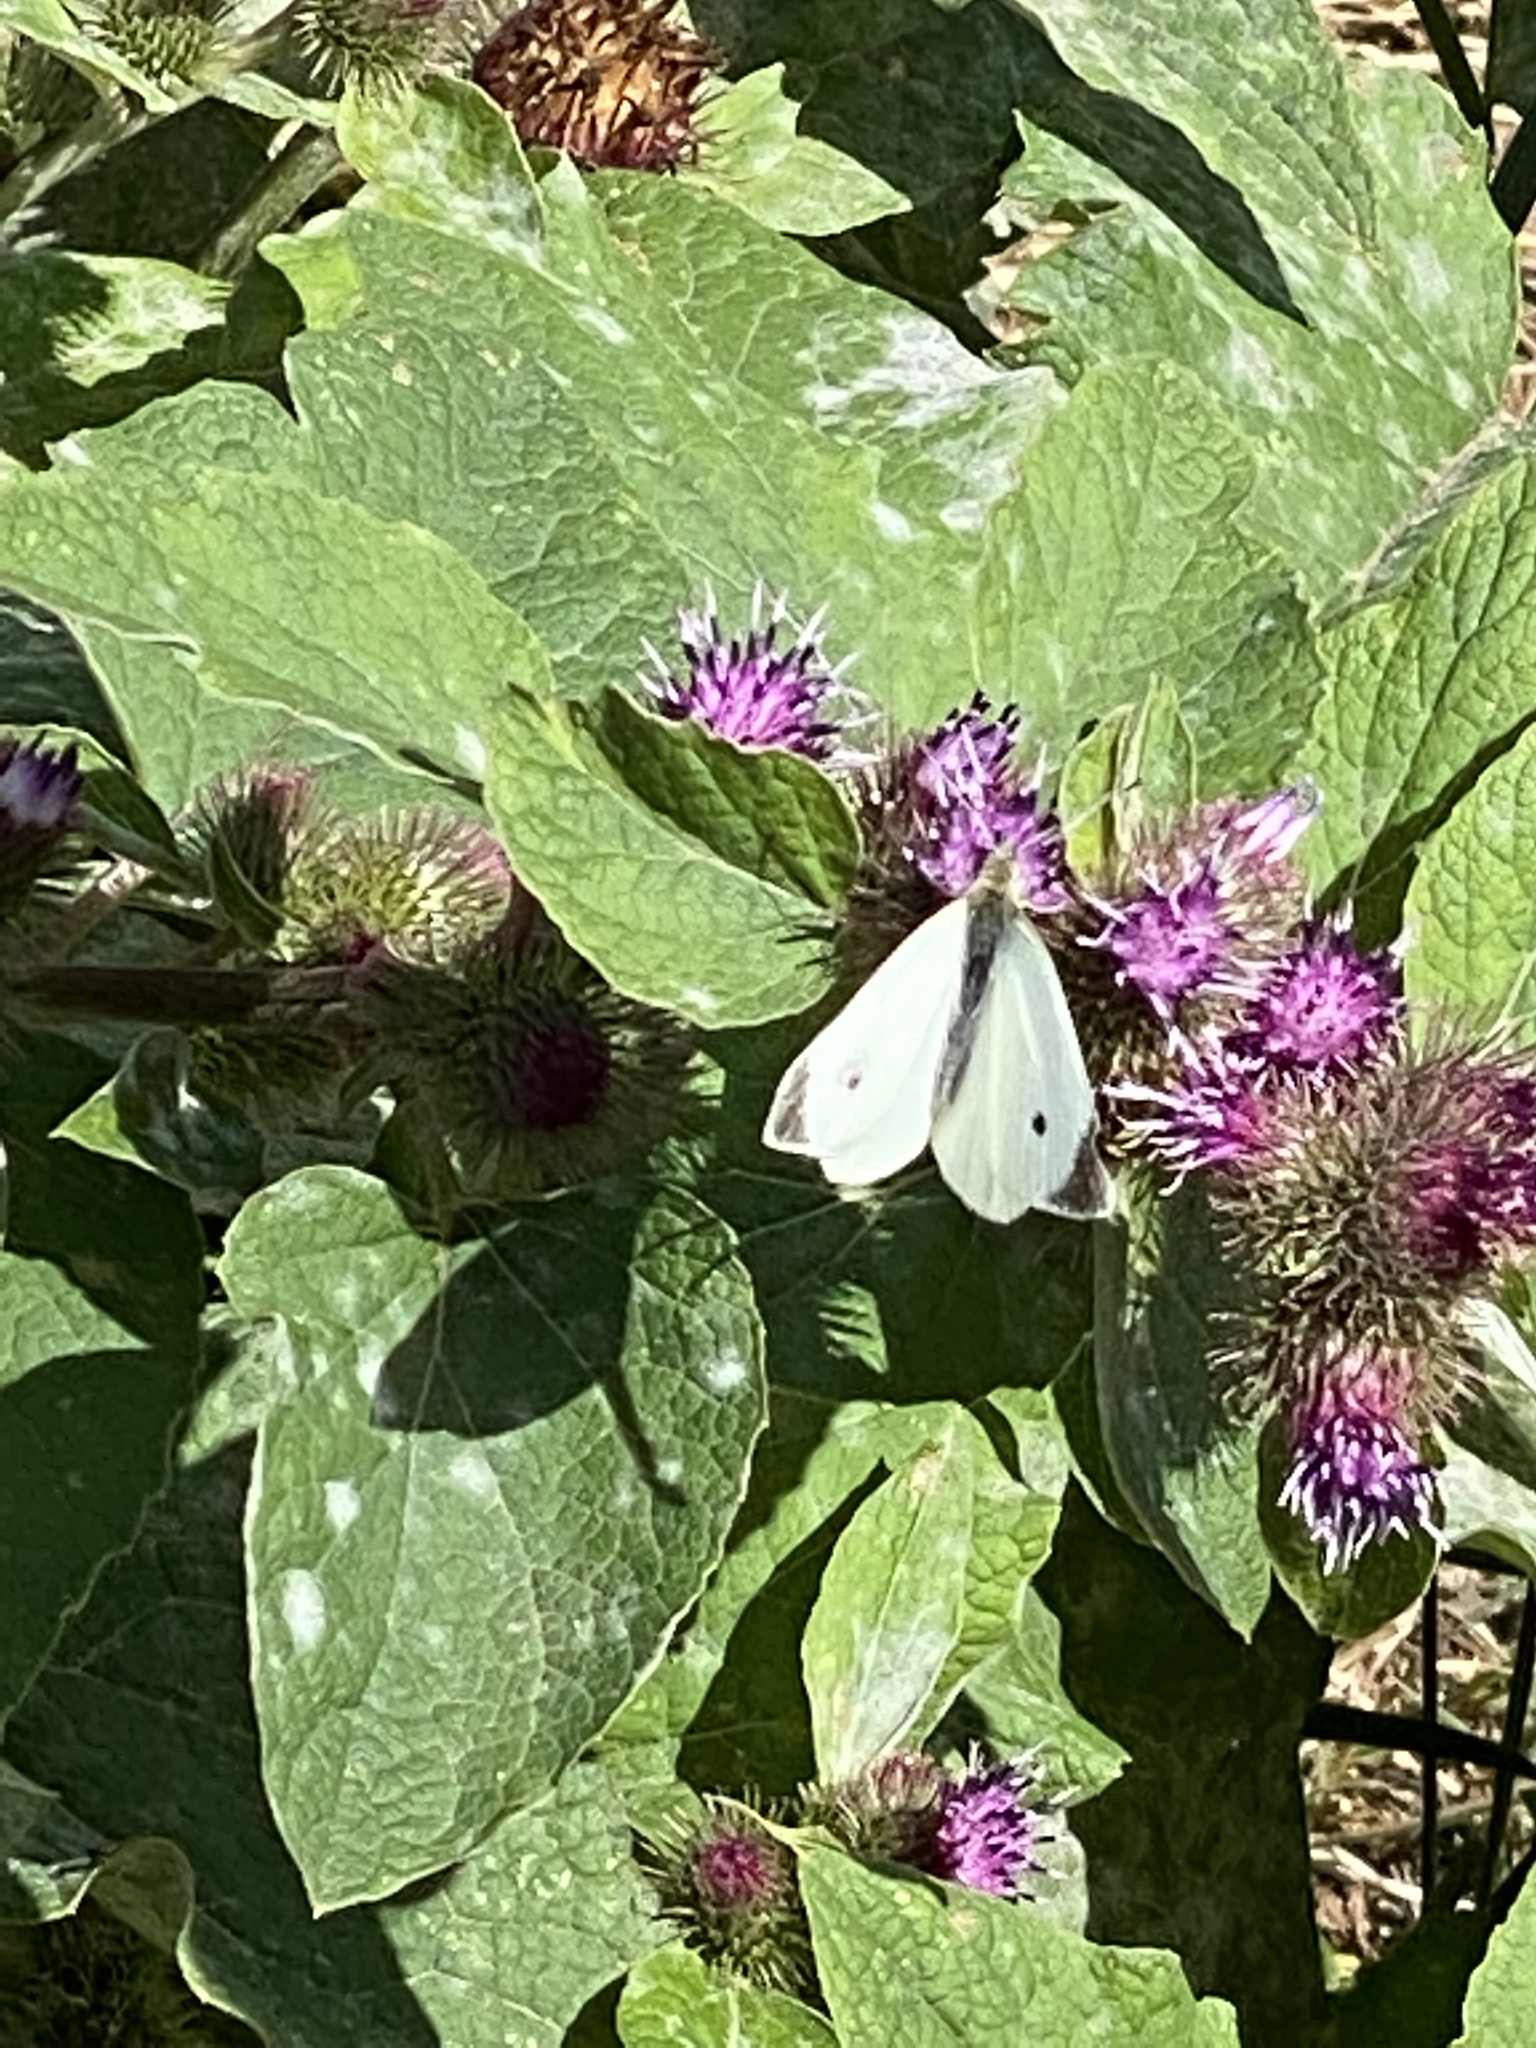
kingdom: Animalia
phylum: Arthropoda
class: Insecta
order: Lepidoptera
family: Pieridae
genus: Pieris
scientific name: Pieris rapae
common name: Small white
